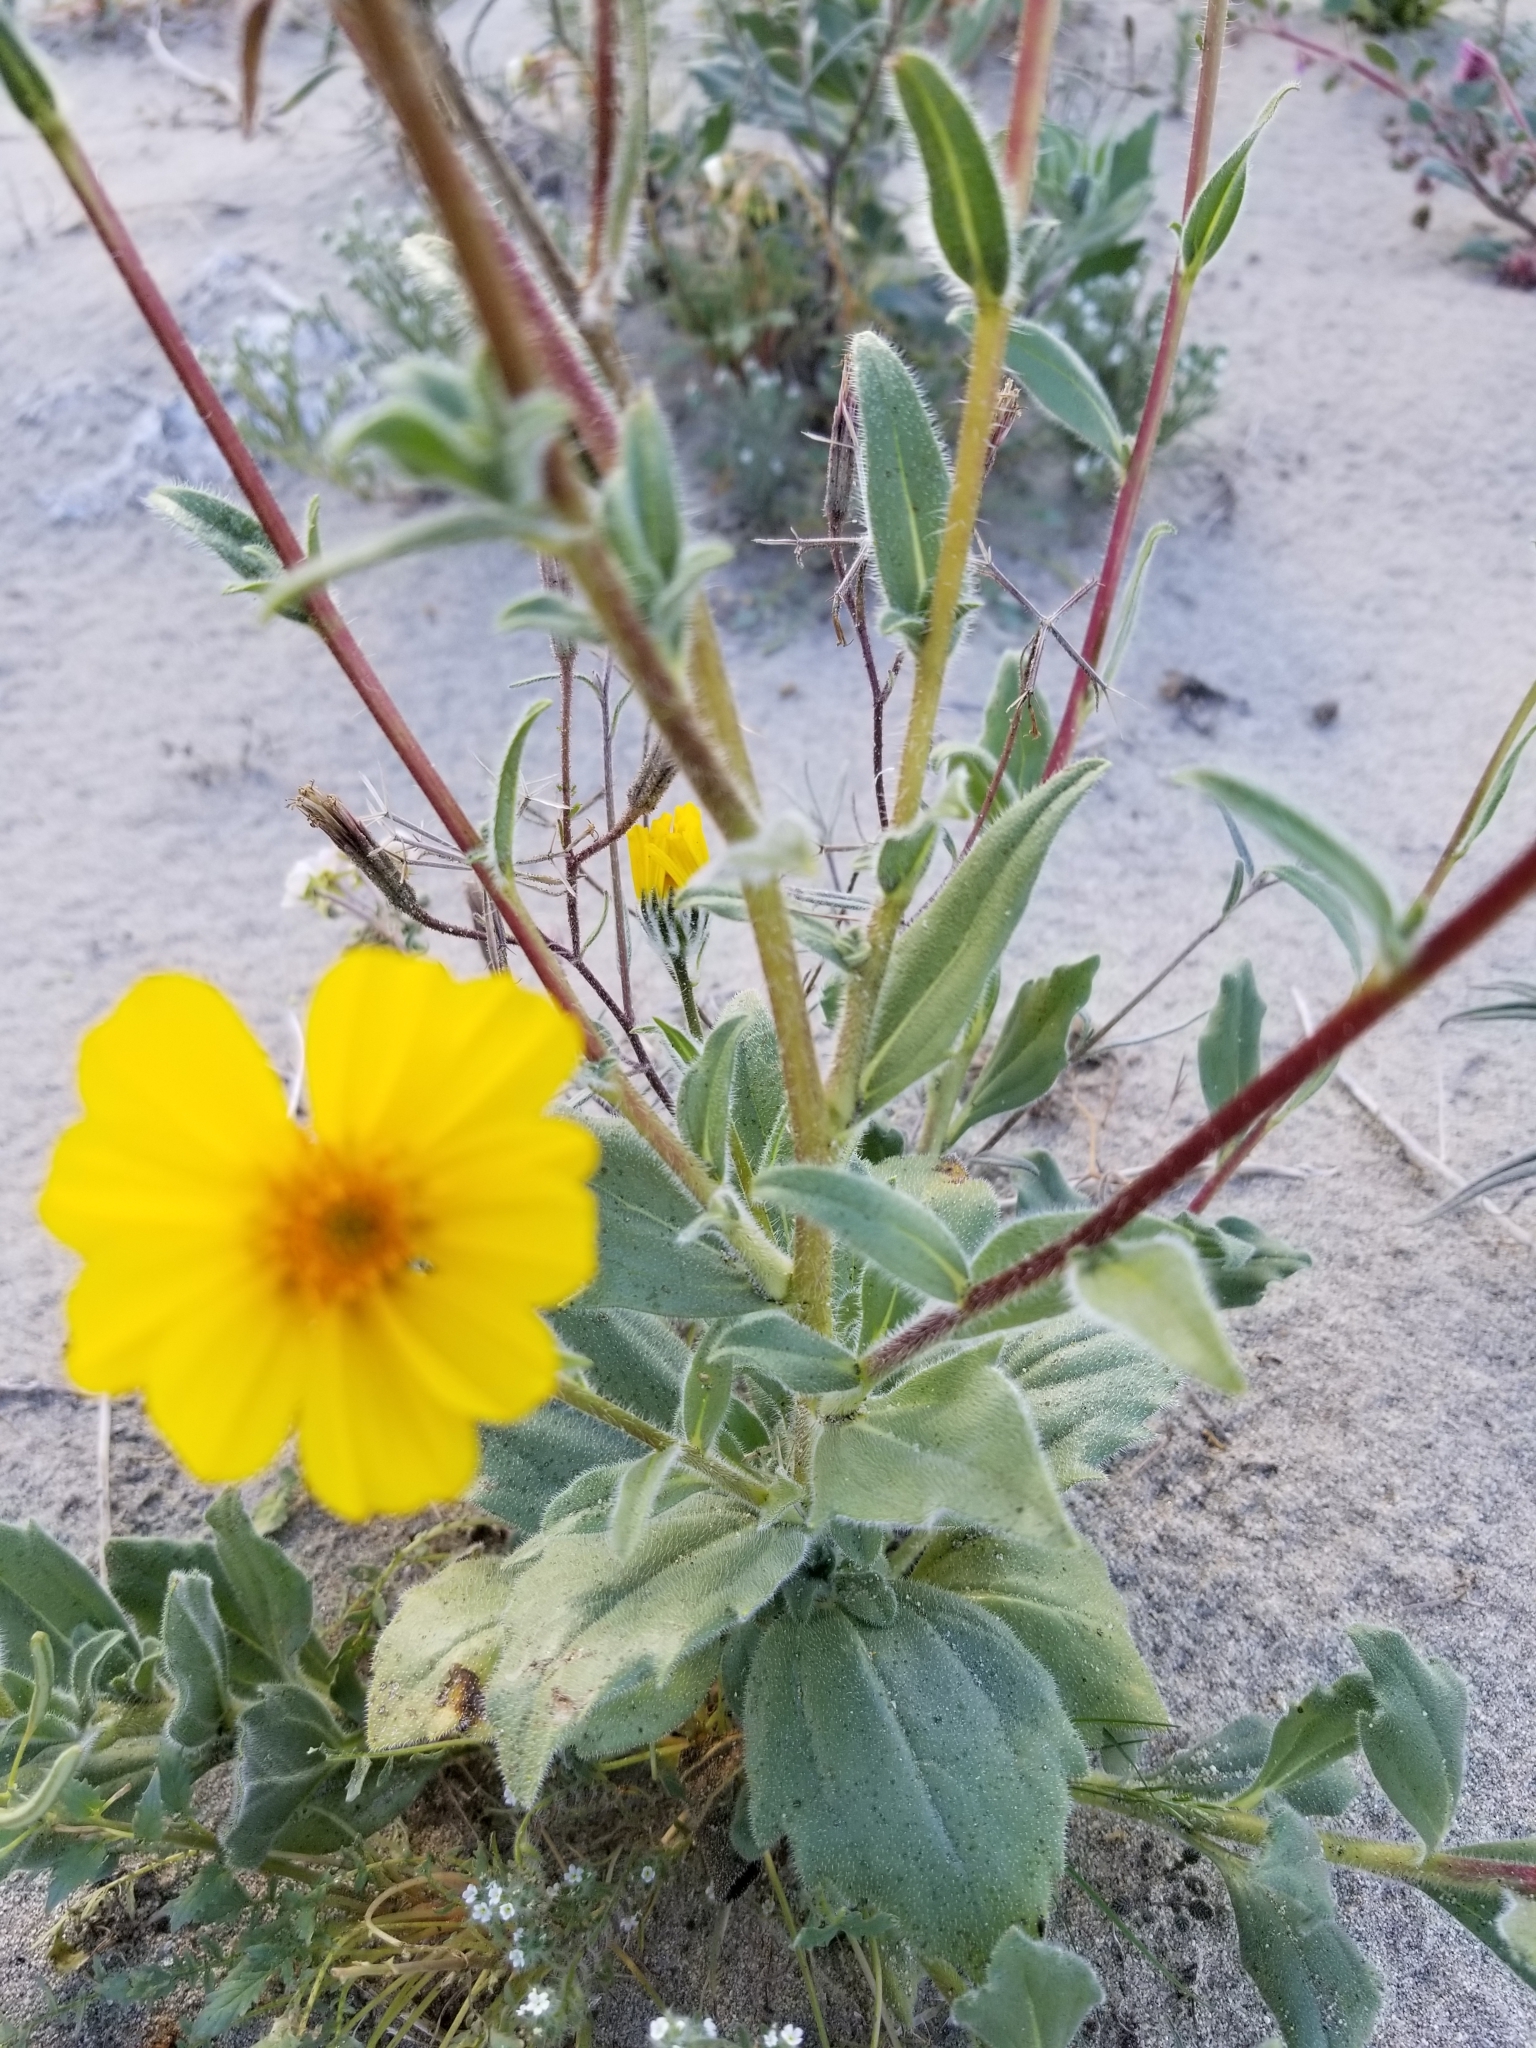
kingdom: Plantae
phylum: Tracheophyta
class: Magnoliopsida
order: Asterales
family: Asteraceae
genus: Geraea
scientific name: Geraea canescens
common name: Desert-gold
